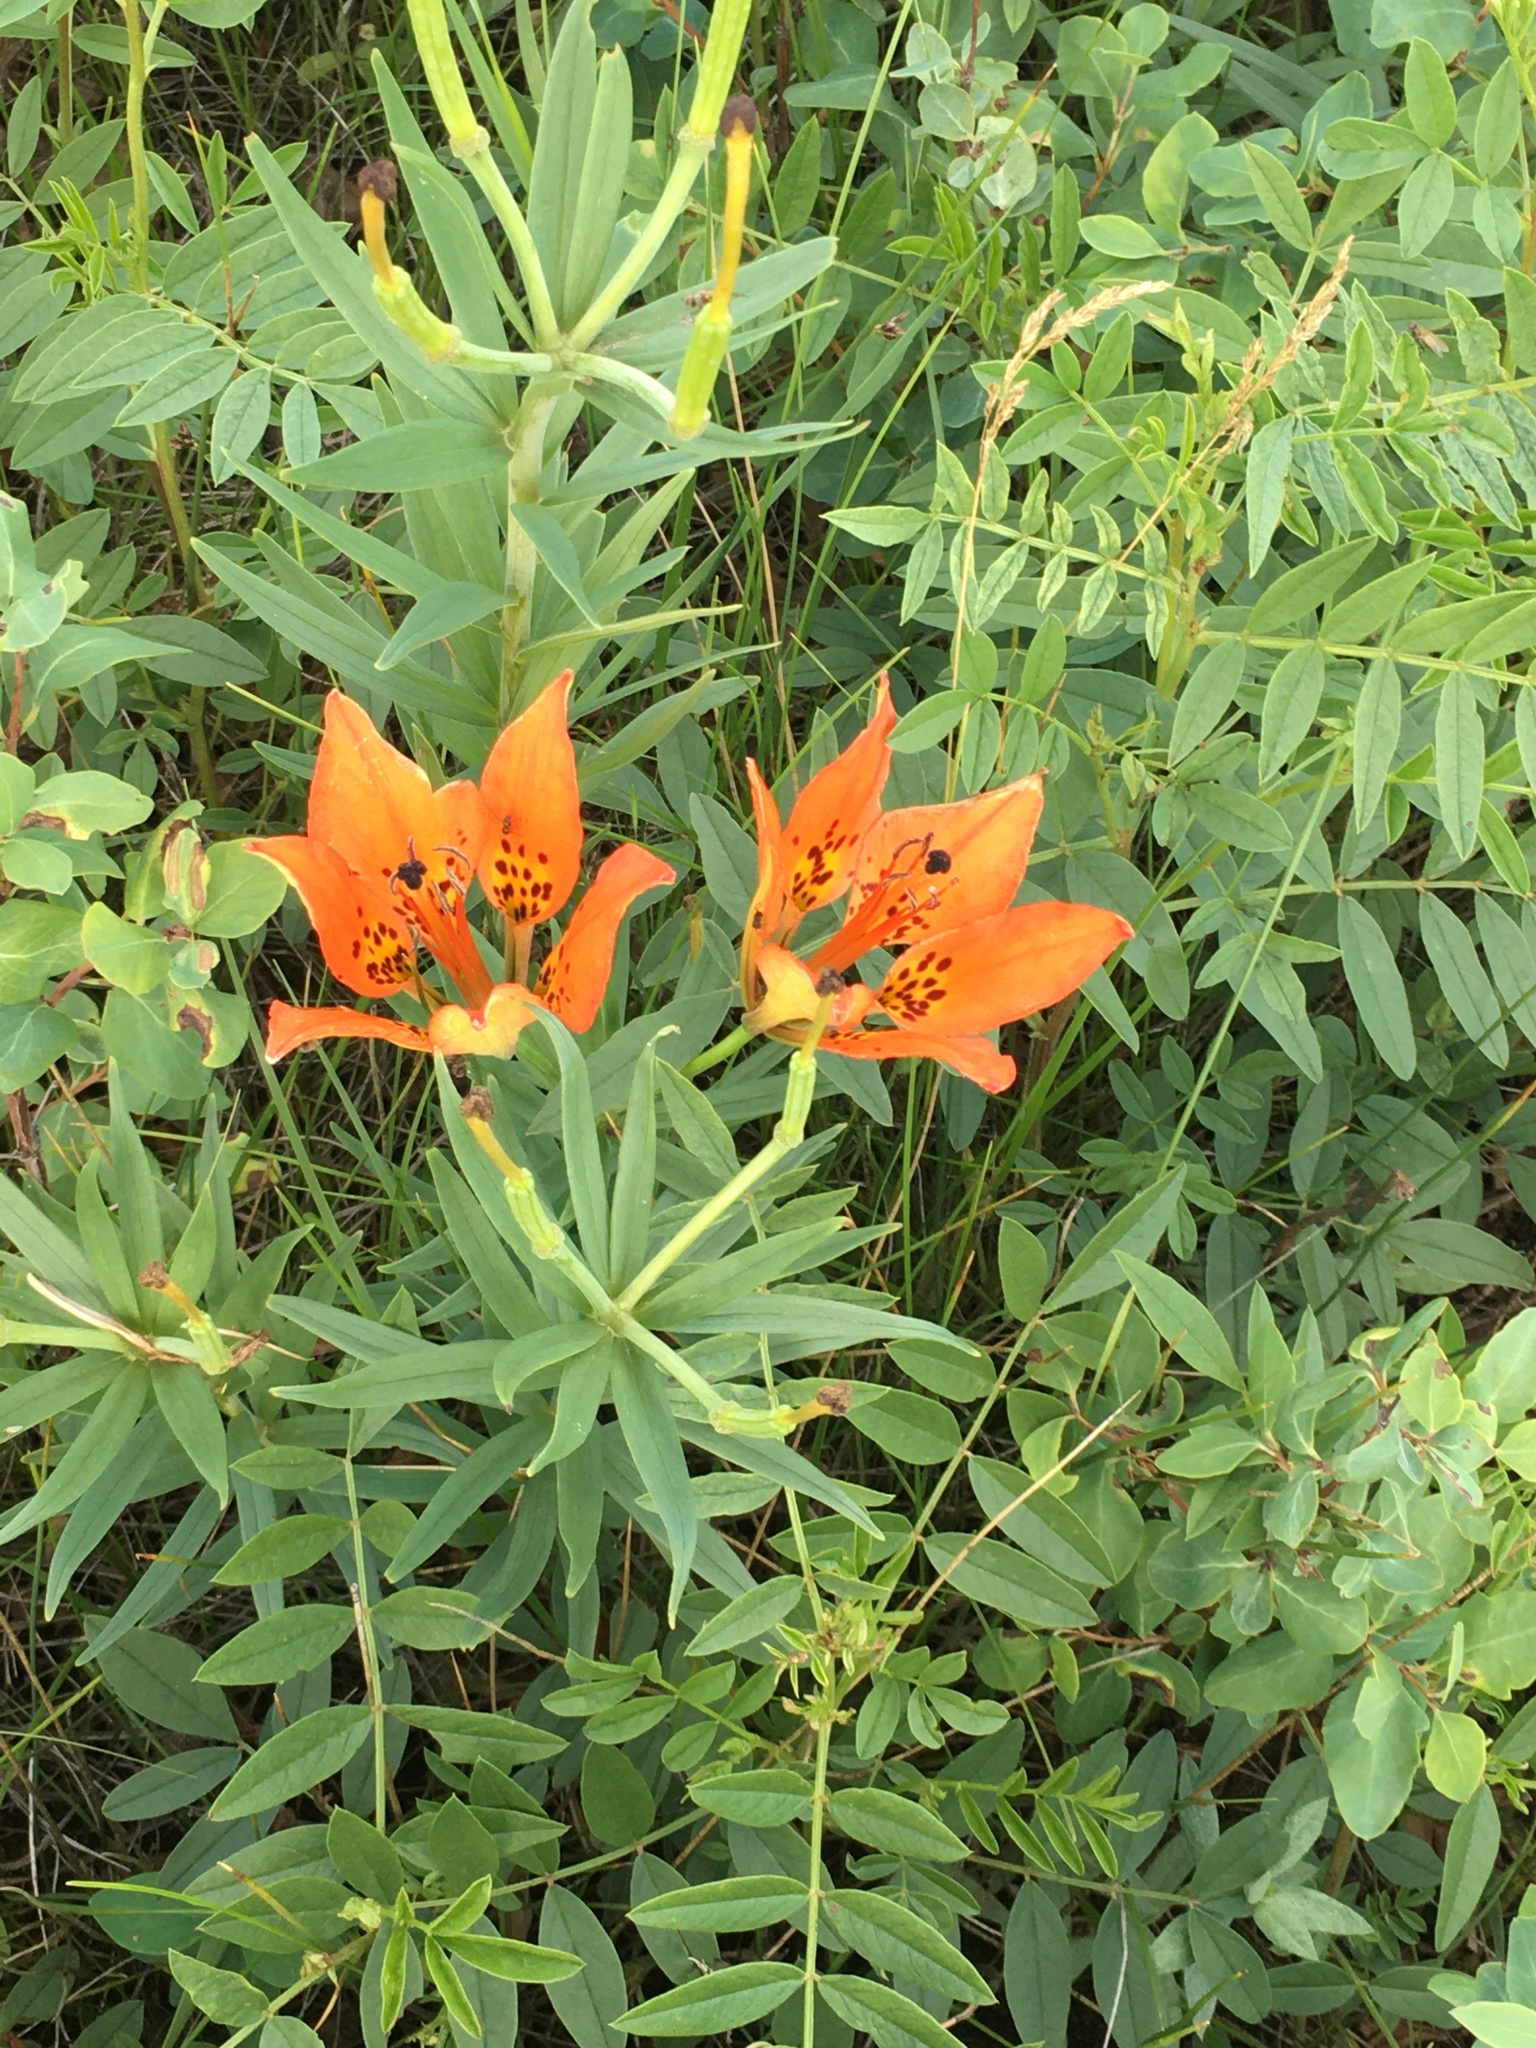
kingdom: Plantae
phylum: Tracheophyta
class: Liliopsida
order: Liliales
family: Liliaceae
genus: Lilium
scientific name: Lilium philadelphicum
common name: Red lily
